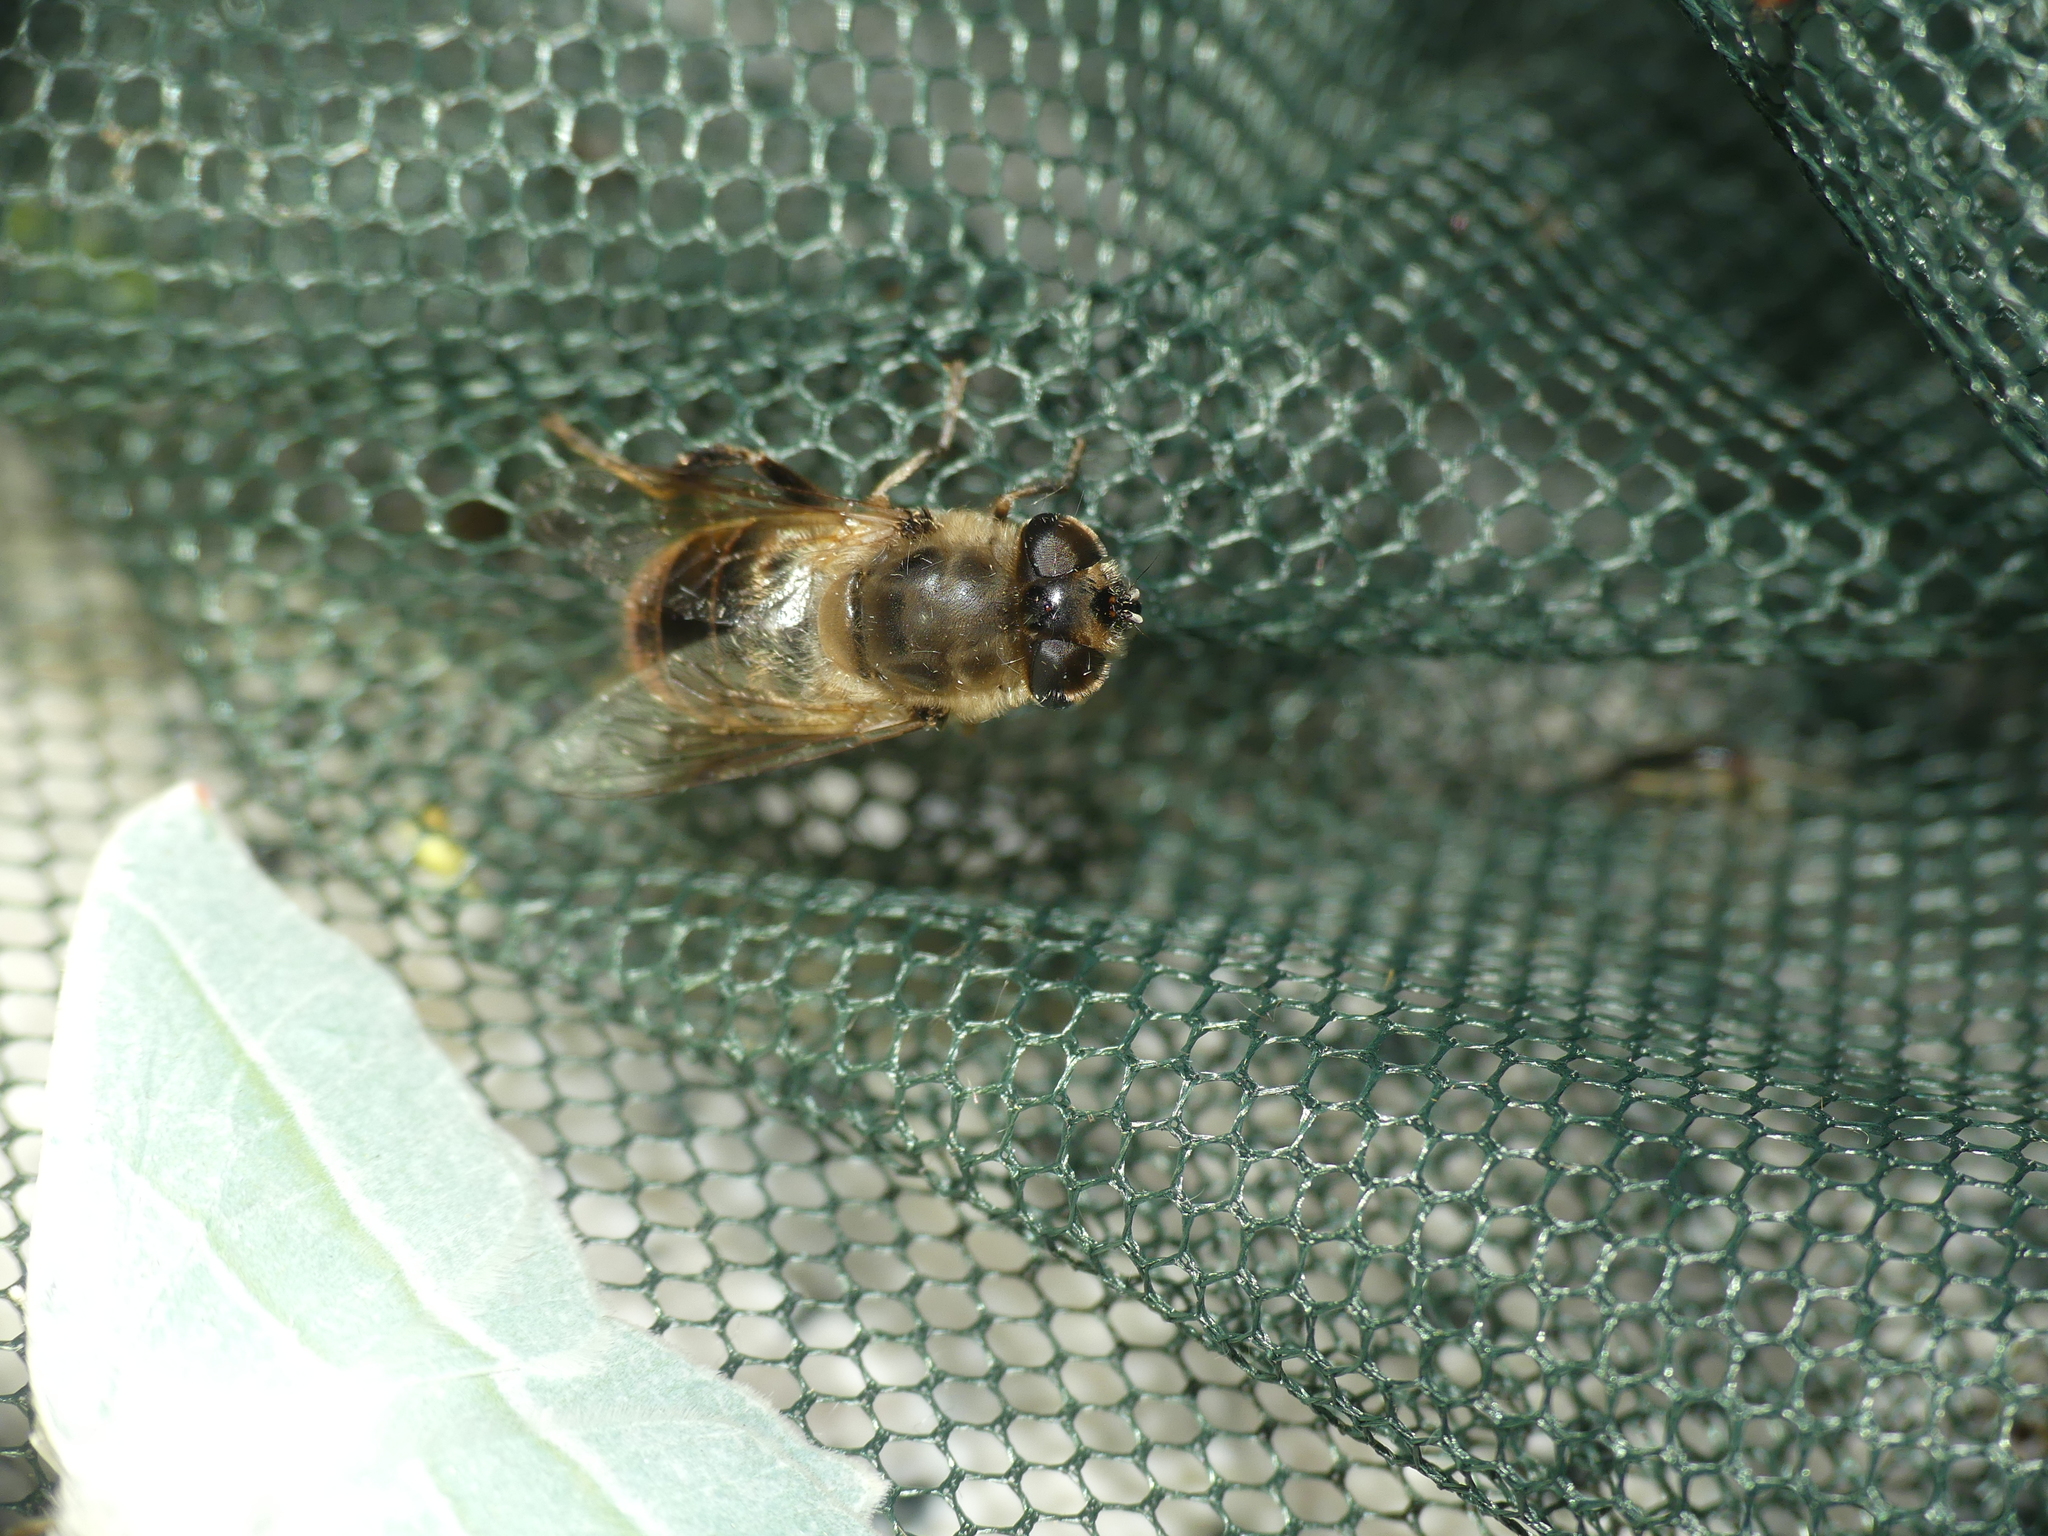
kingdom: Animalia
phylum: Arthropoda
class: Insecta
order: Diptera
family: Syrphidae
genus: Eristalis
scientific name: Eristalis tenax
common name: Drone fly
